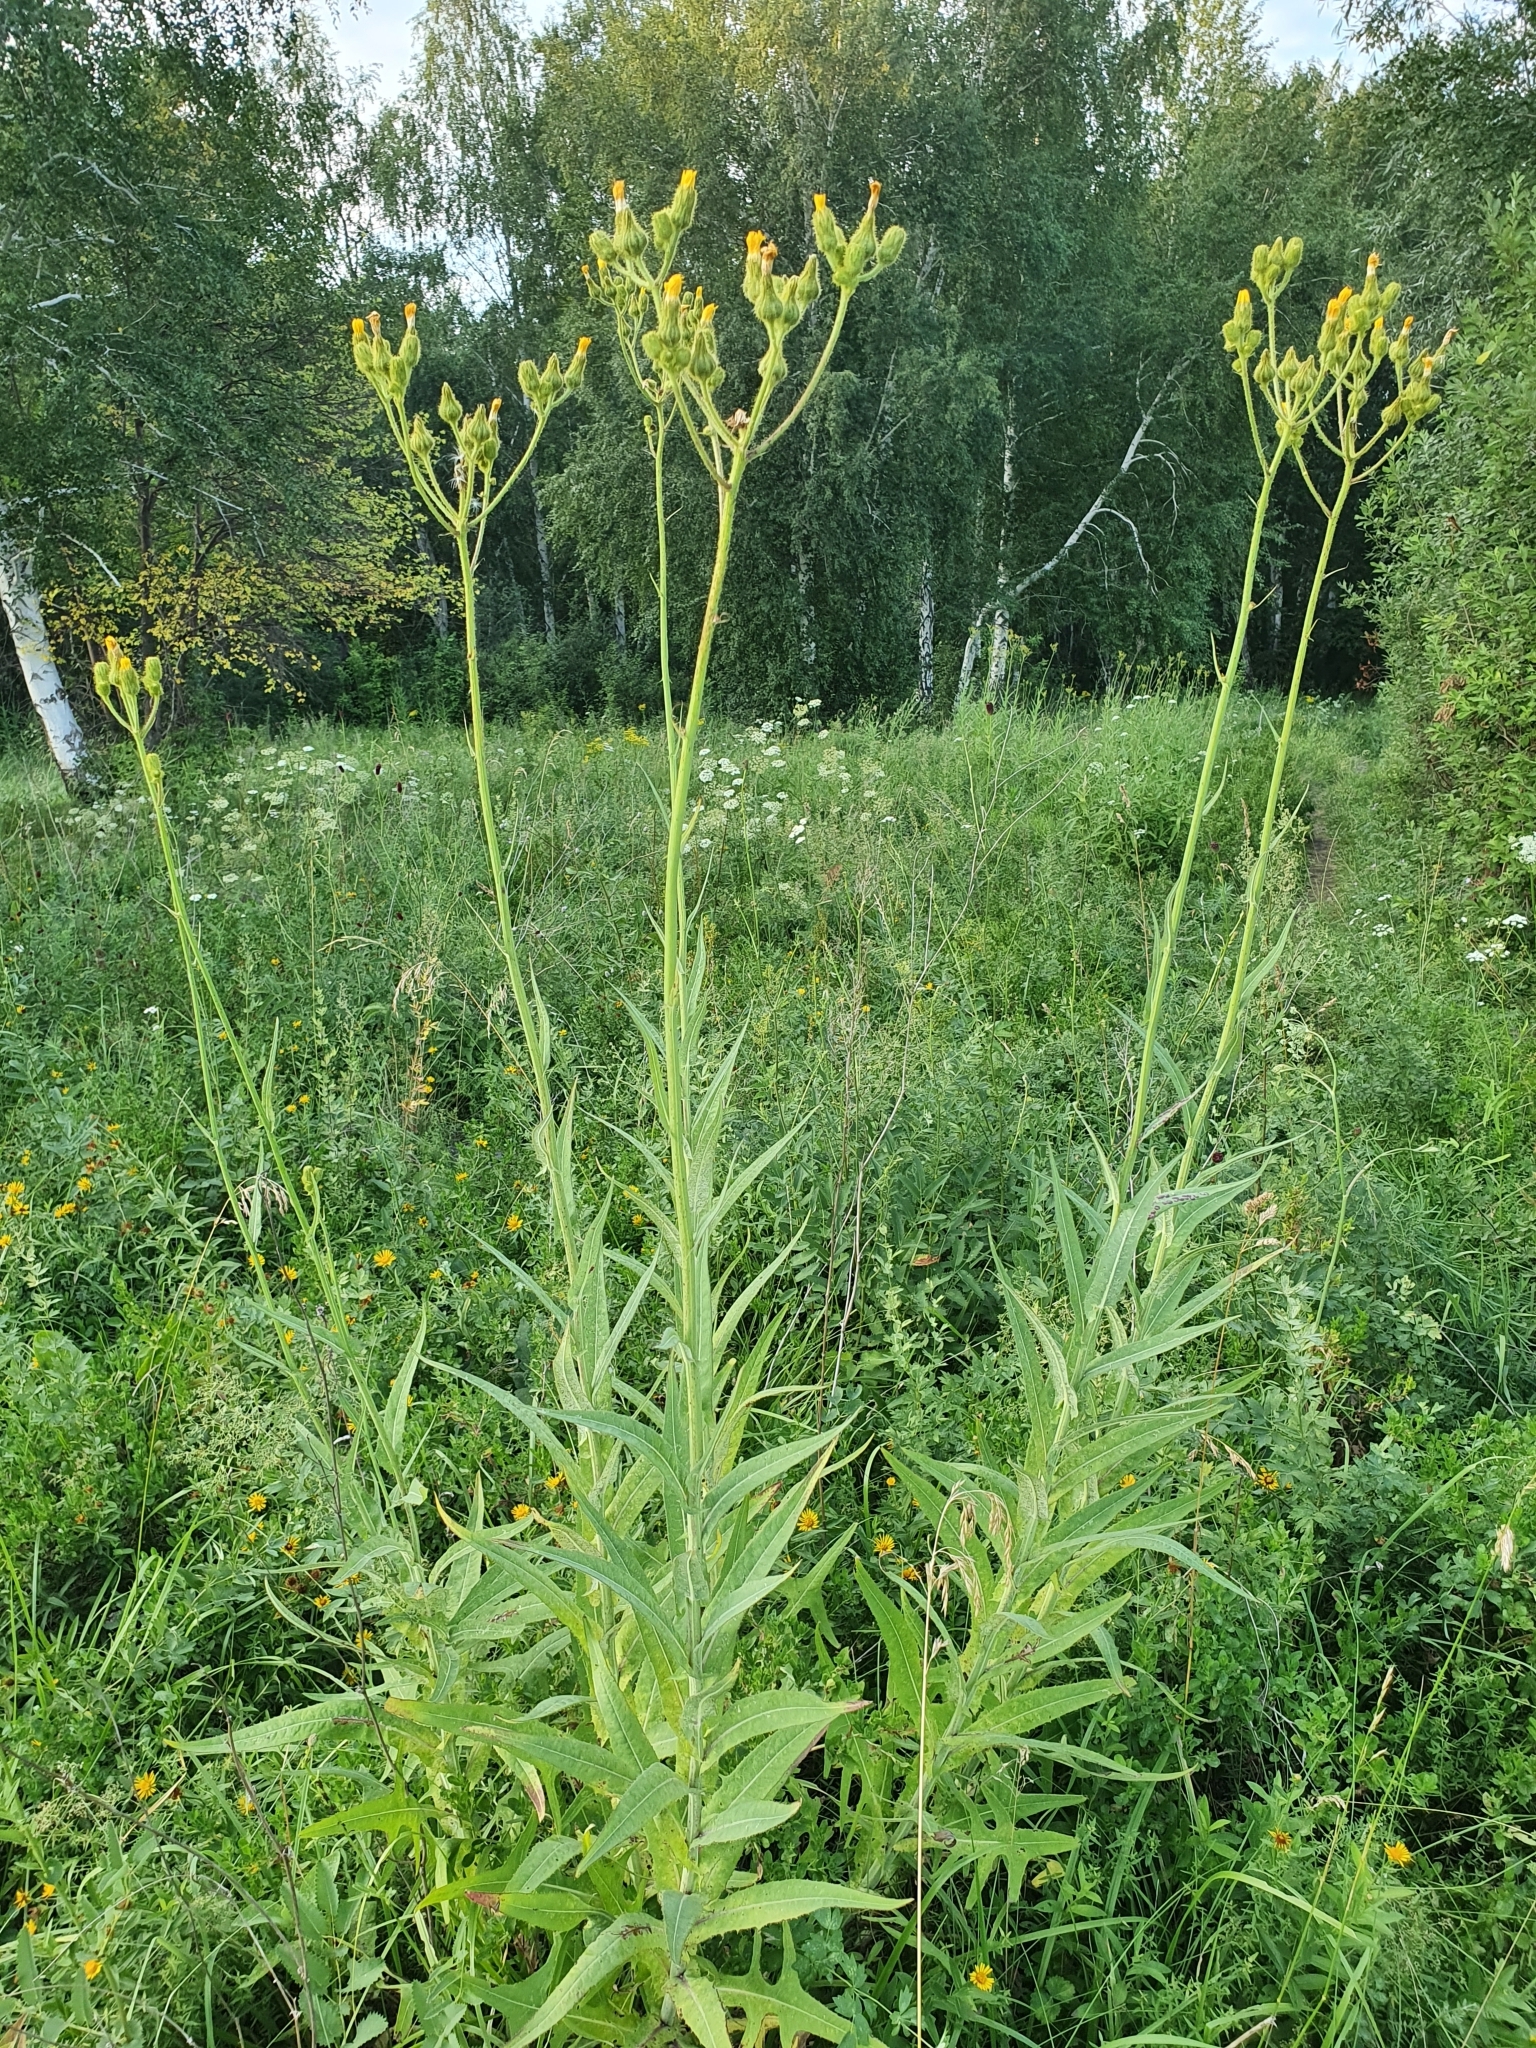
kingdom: Plantae
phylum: Tracheophyta
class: Magnoliopsida
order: Asterales
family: Asteraceae
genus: Sonchus
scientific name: Sonchus palustris
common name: Marsh sow-thistle
